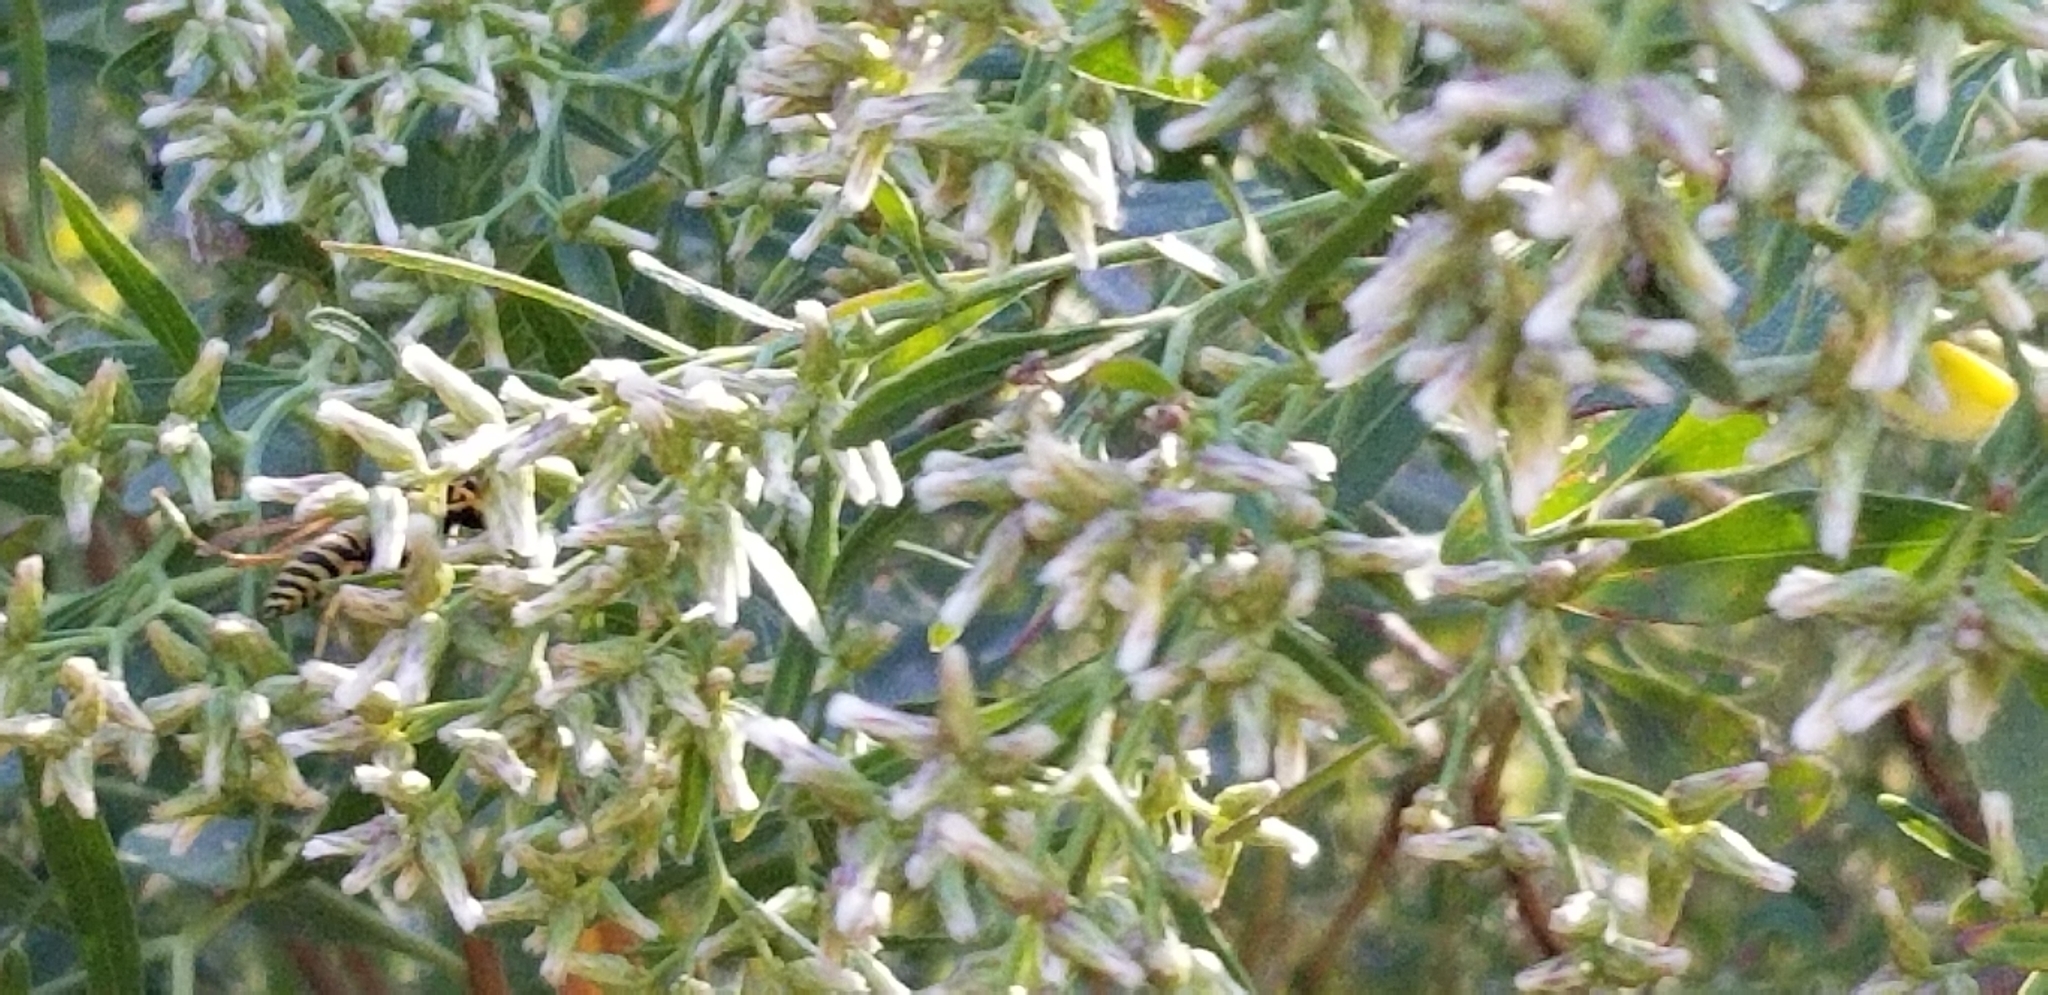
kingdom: Plantae
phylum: Tracheophyta
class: Magnoliopsida
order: Asterales
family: Asteraceae
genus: Baccharis
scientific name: Baccharis halimifolia
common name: Eastern baccharis
